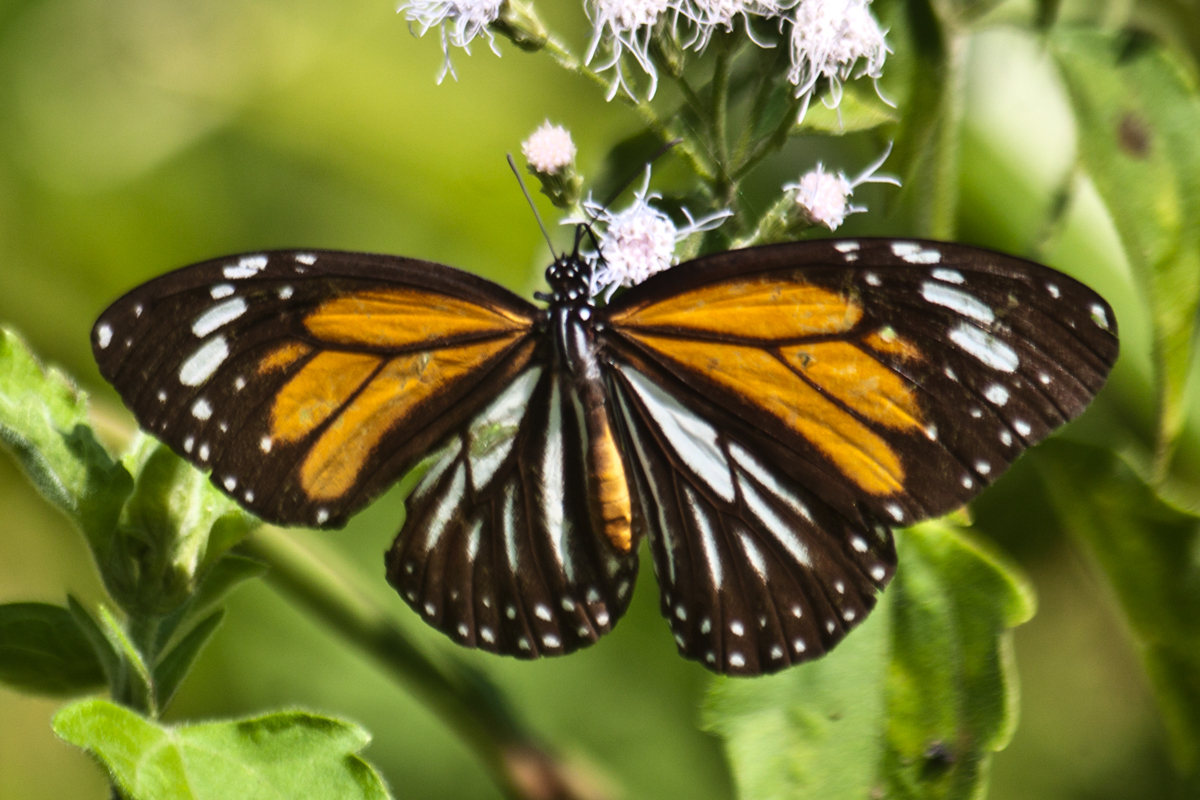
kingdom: Animalia
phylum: Arthropoda
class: Insecta
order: Lepidoptera
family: Nymphalidae
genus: Danaus
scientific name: Danaus melanippus
